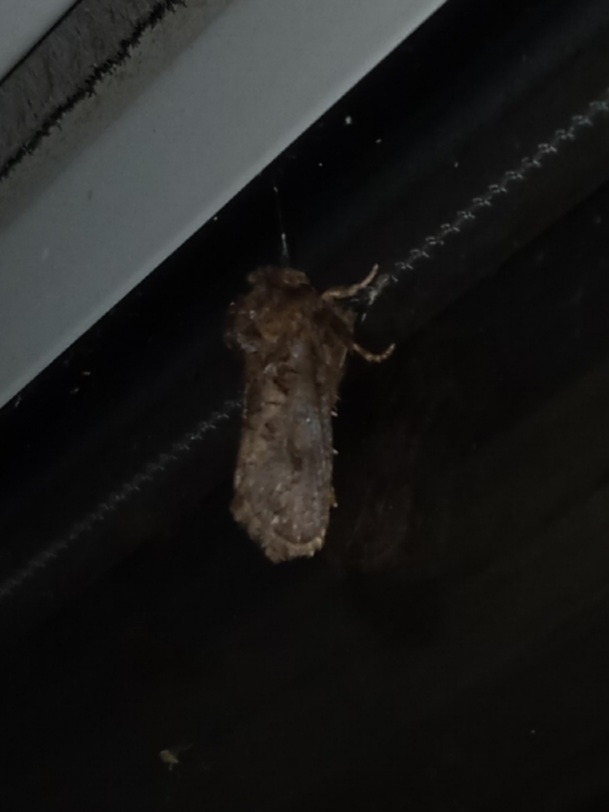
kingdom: Animalia
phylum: Arthropoda
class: Insecta
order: Lepidoptera
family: Tineidae
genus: Acrolophus
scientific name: Acrolophus arcanella
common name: Arcane grass tubeworm moth
